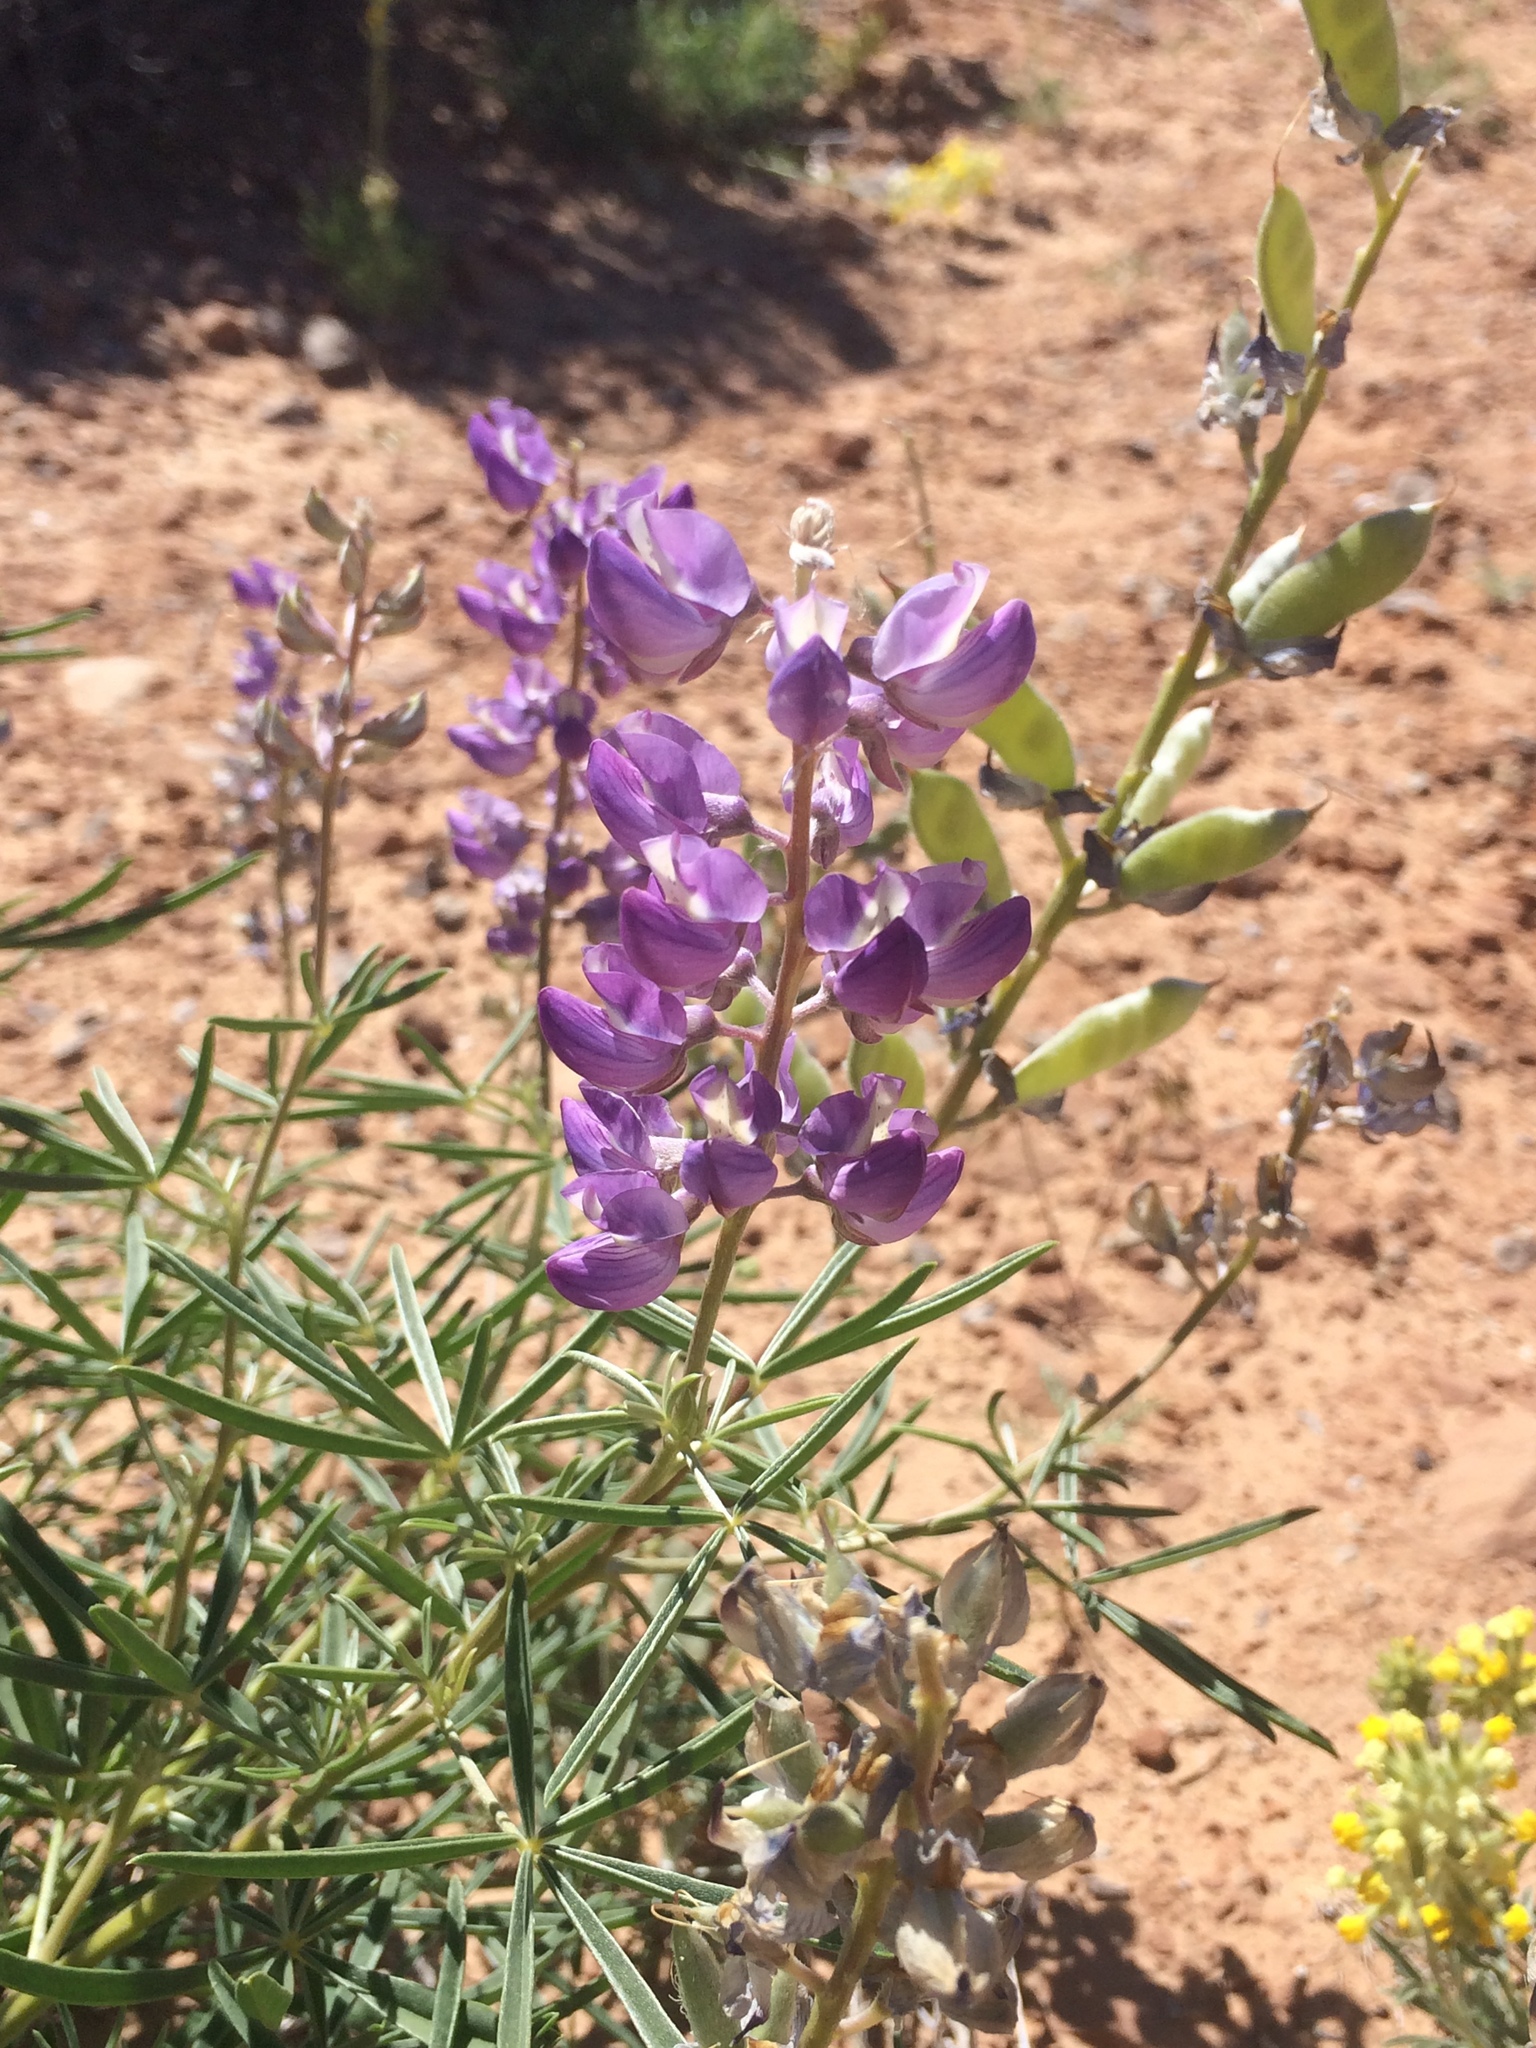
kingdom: Plantae
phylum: Tracheophyta
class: Magnoliopsida
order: Fabales
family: Fabaceae
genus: Lupinus
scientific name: Lupinus argenteus
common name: Silvery lupine
